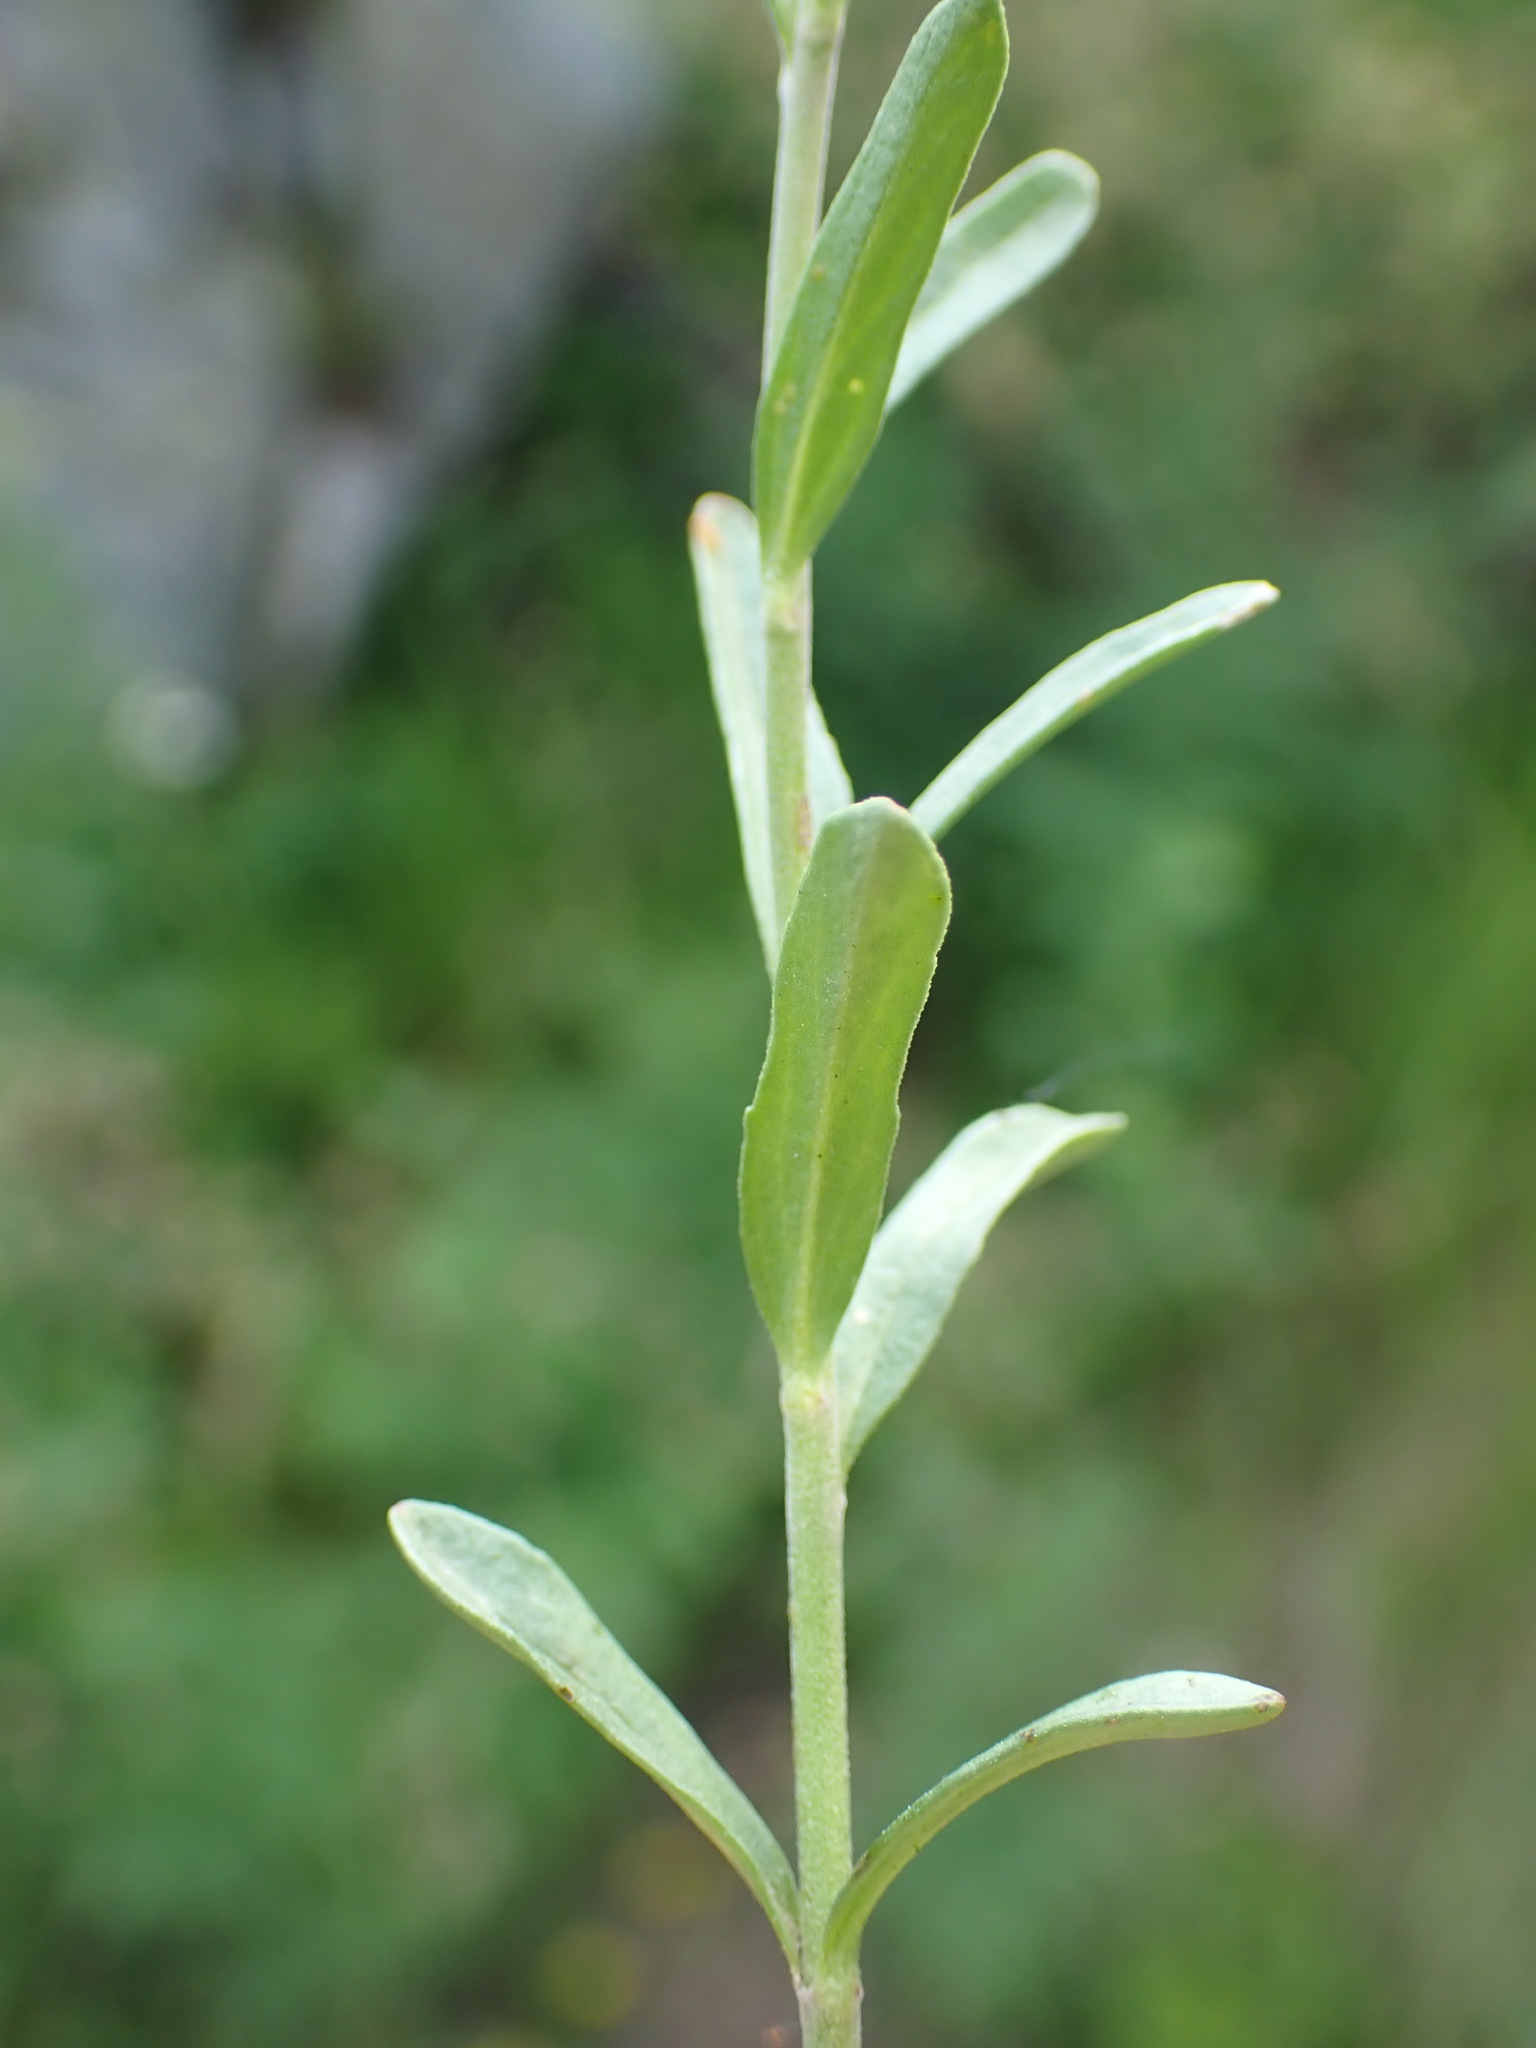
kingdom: Plantae
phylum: Tracheophyta
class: Magnoliopsida
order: Lamiales
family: Plantaginaceae
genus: Veronica
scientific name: Veronica fruticans
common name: Rock speedwell
